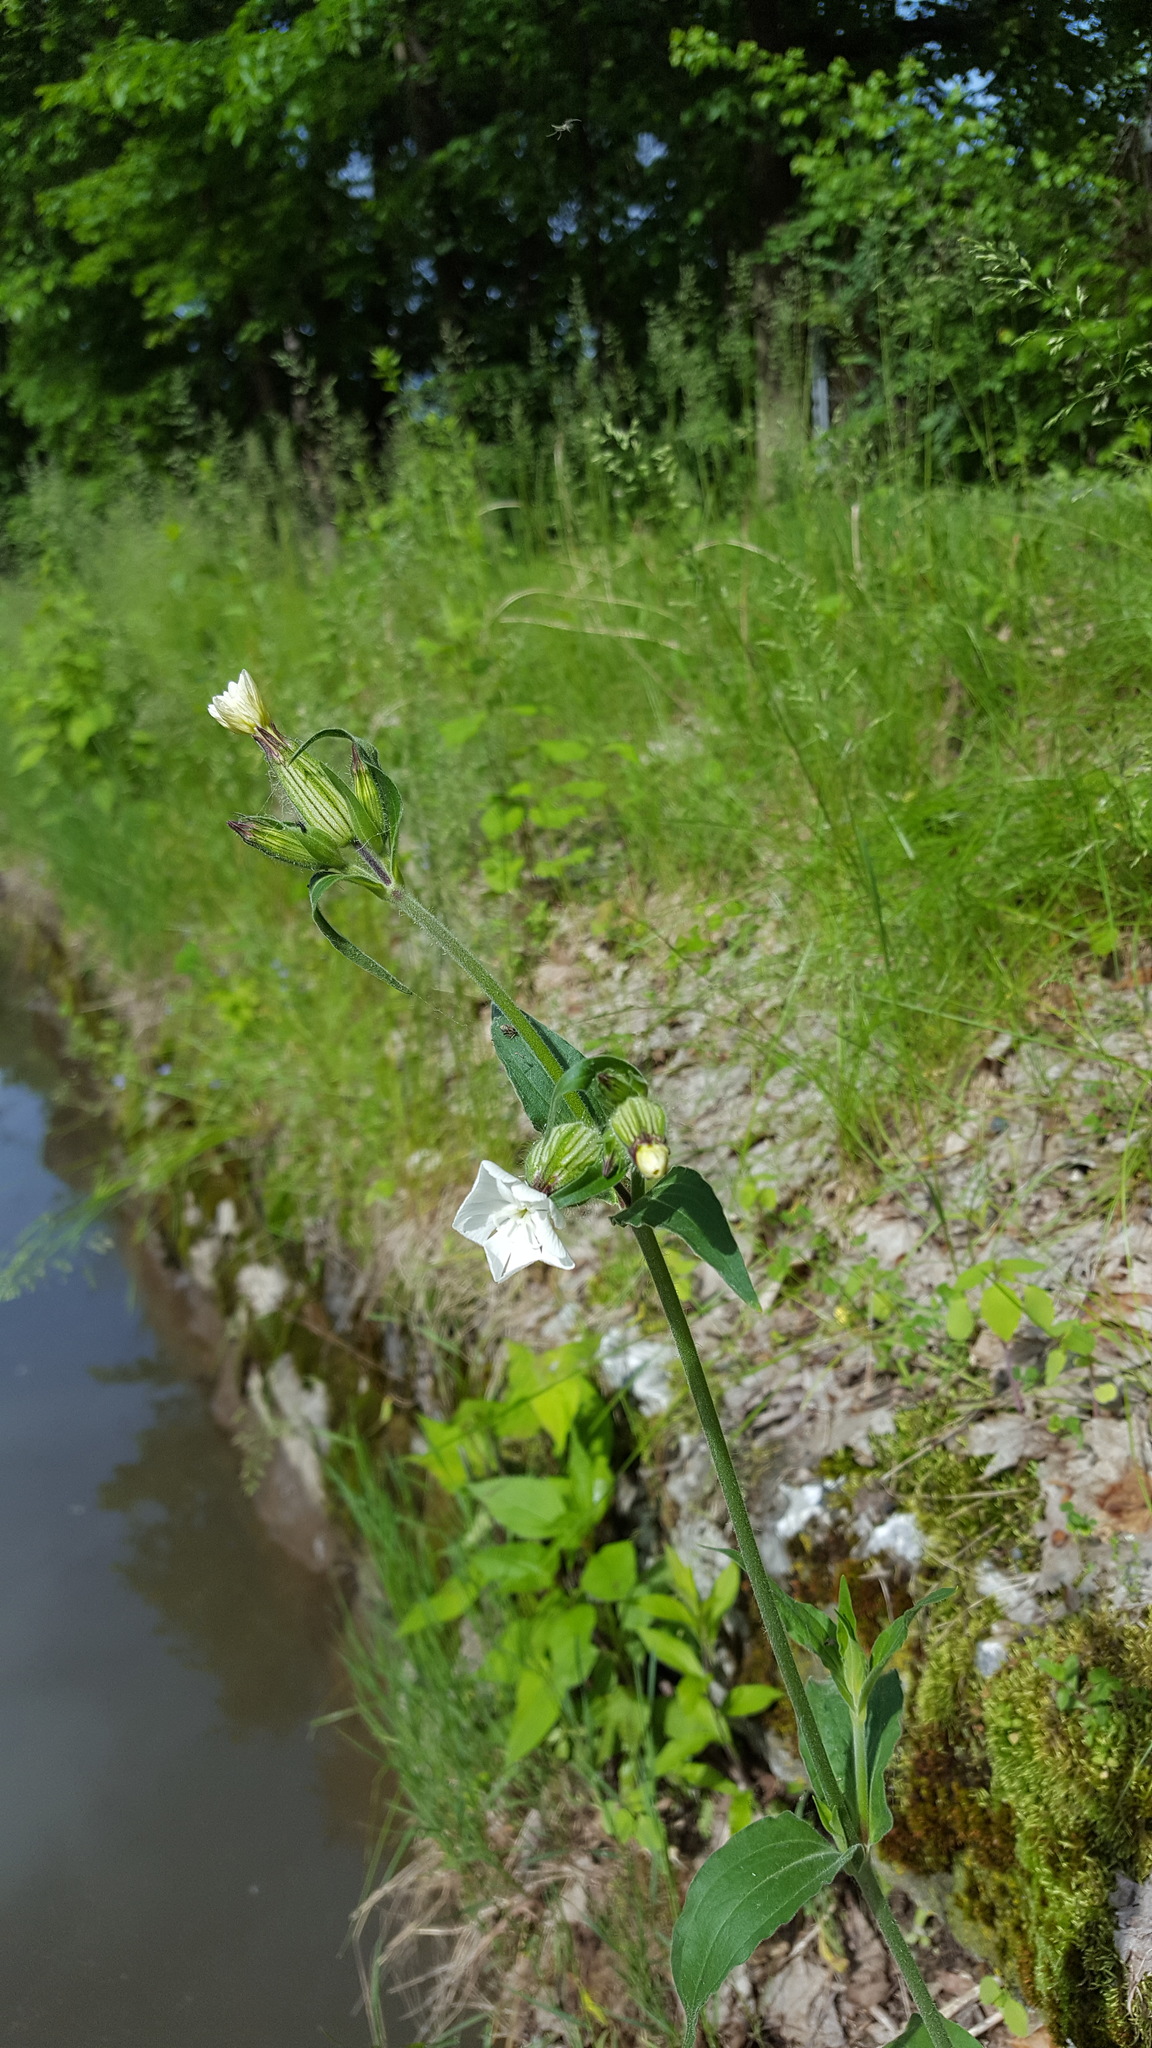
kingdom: Plantae
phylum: Tracheophyta
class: Magnoliopsida
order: Caryophyllales
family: Caryophyllaceae
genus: Silene
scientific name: Silene latifolia
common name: White campion
